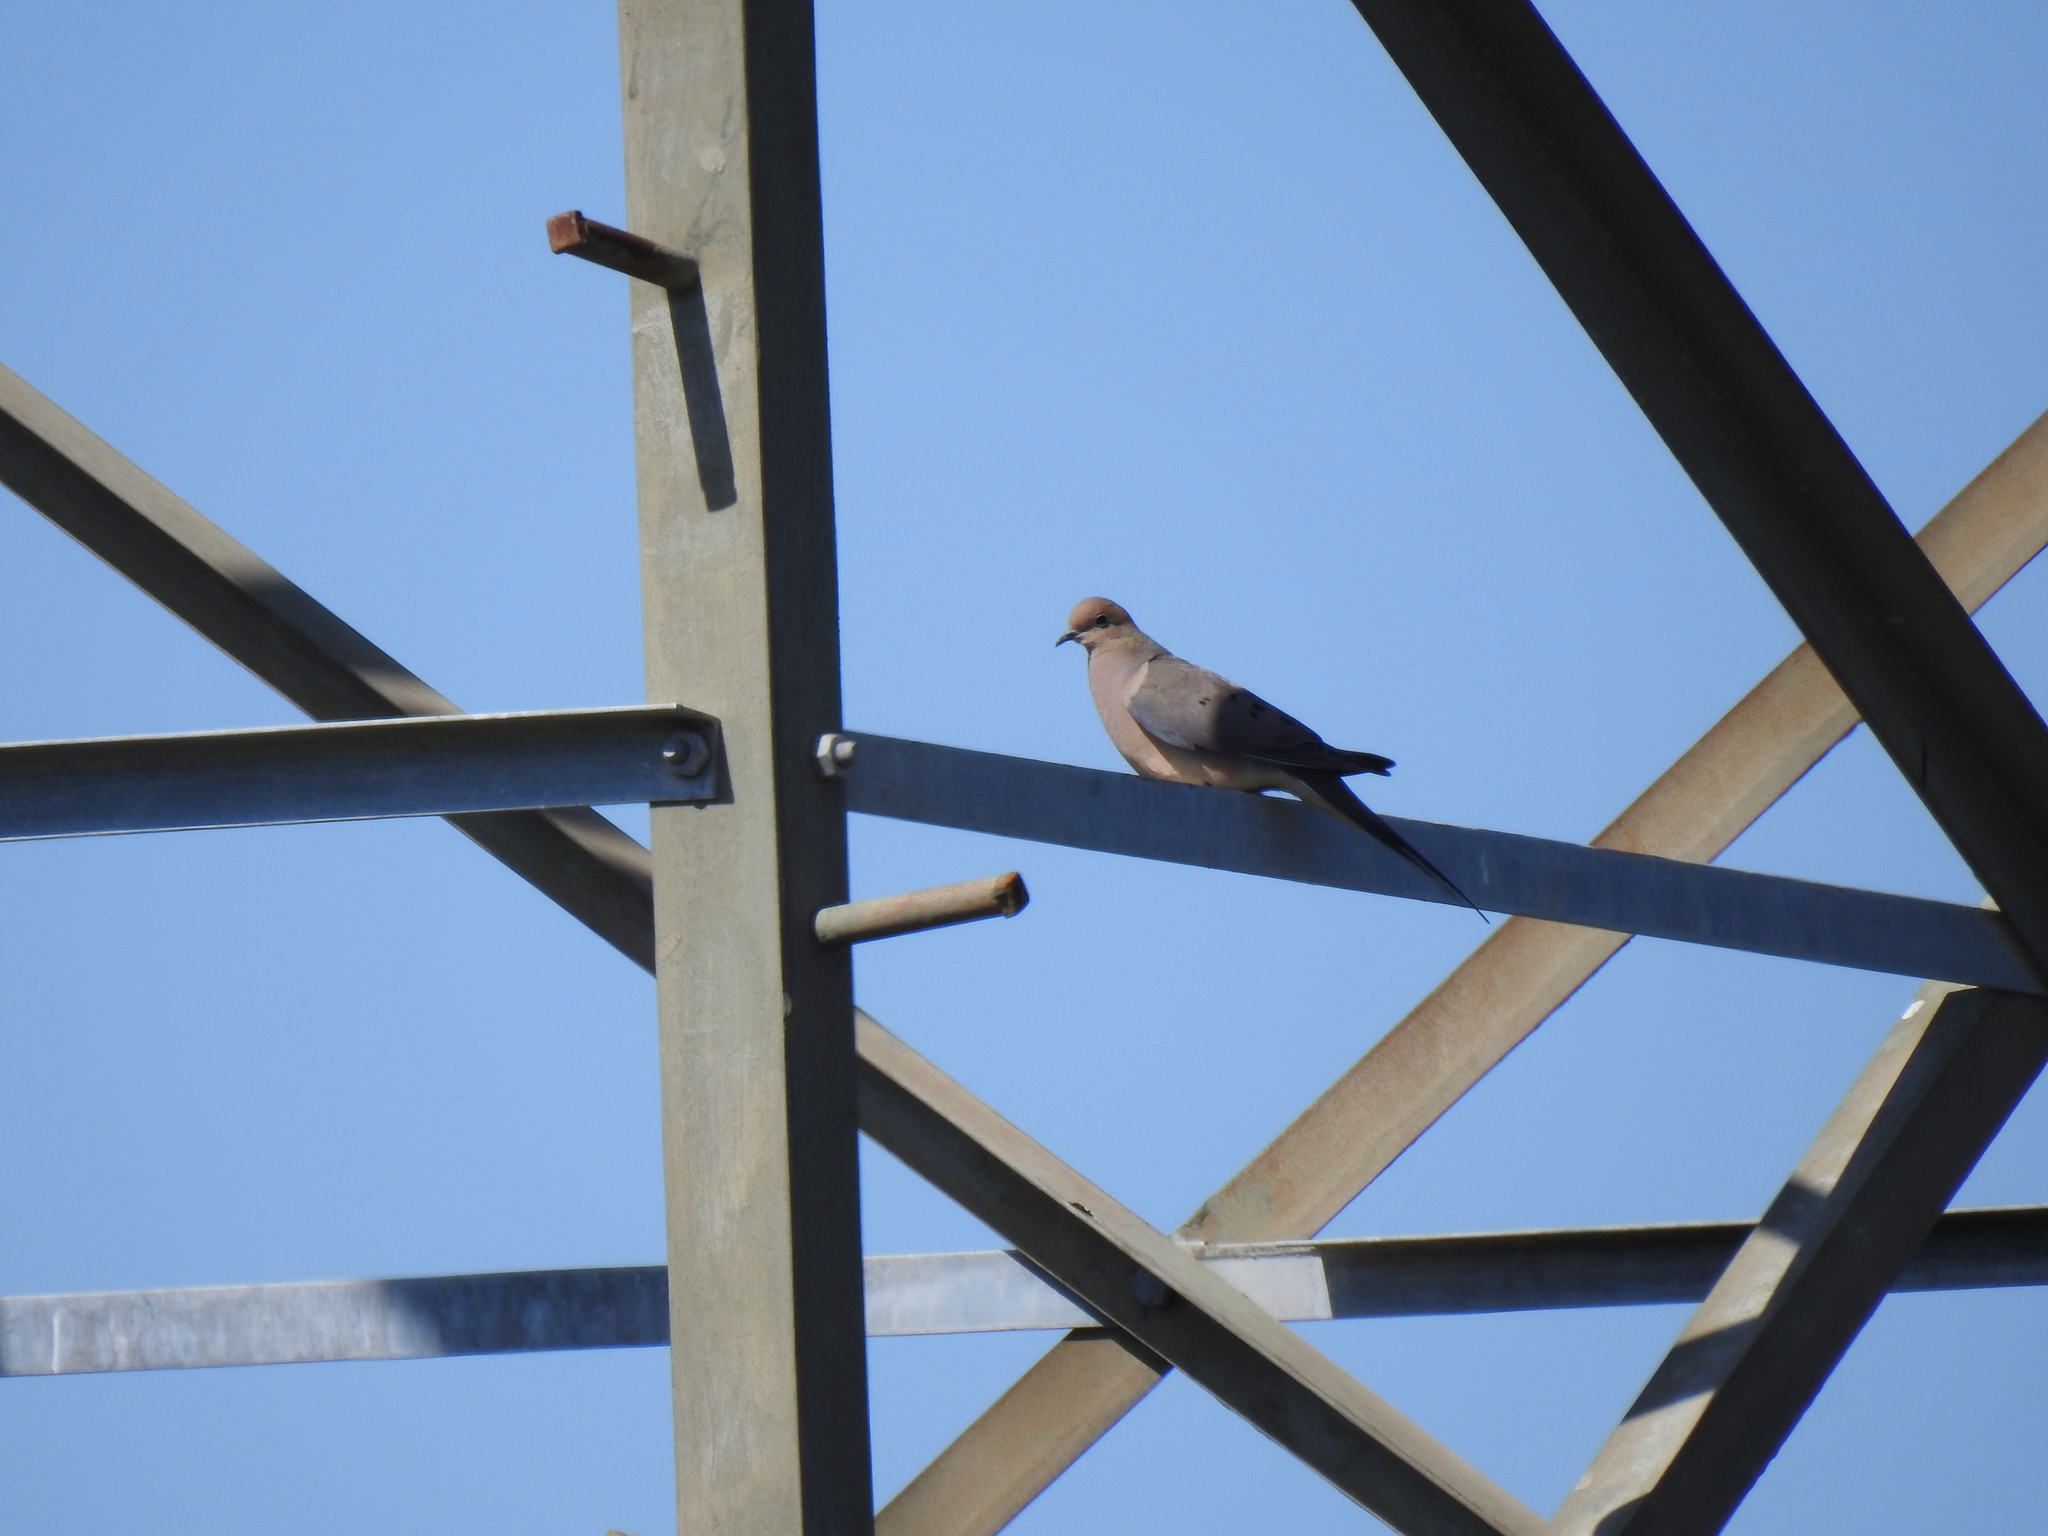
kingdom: Animalia
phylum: Chordata
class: Aves
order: Columbiformes
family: Columbidae
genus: Zenaida
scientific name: Zenaida macroura
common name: Mourning dove
